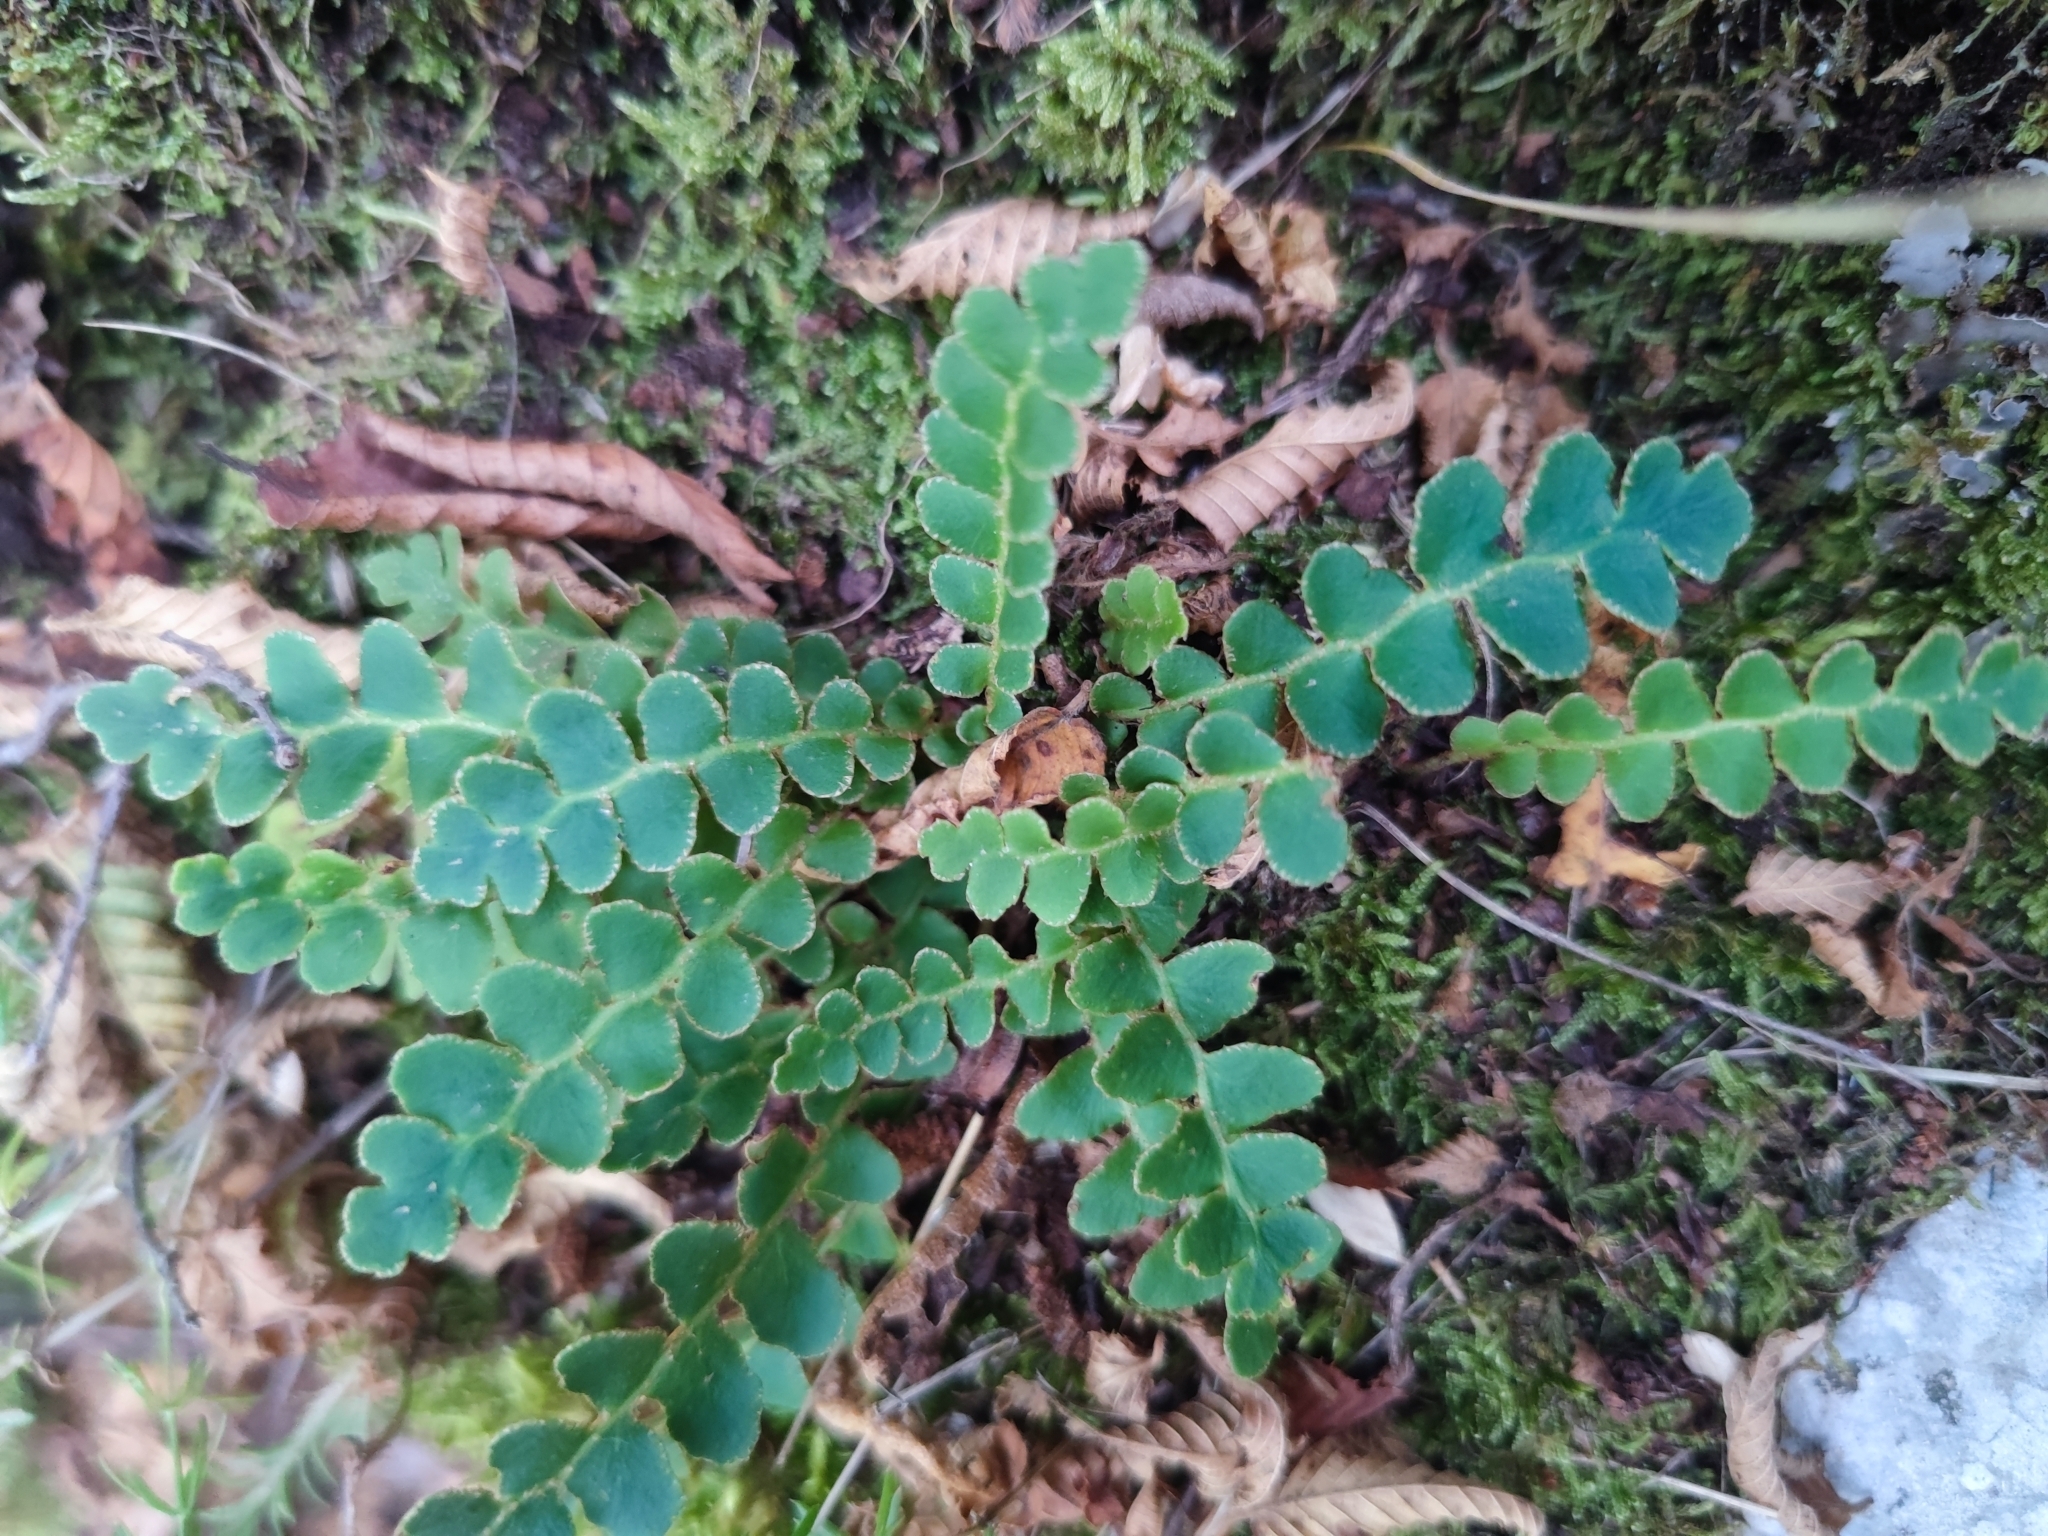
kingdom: Plantae
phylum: Tracheophyta
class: Polypodiopsida
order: Polypodiales
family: Aspleniaceae
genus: Asplenium
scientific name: Asplenium ceterach
